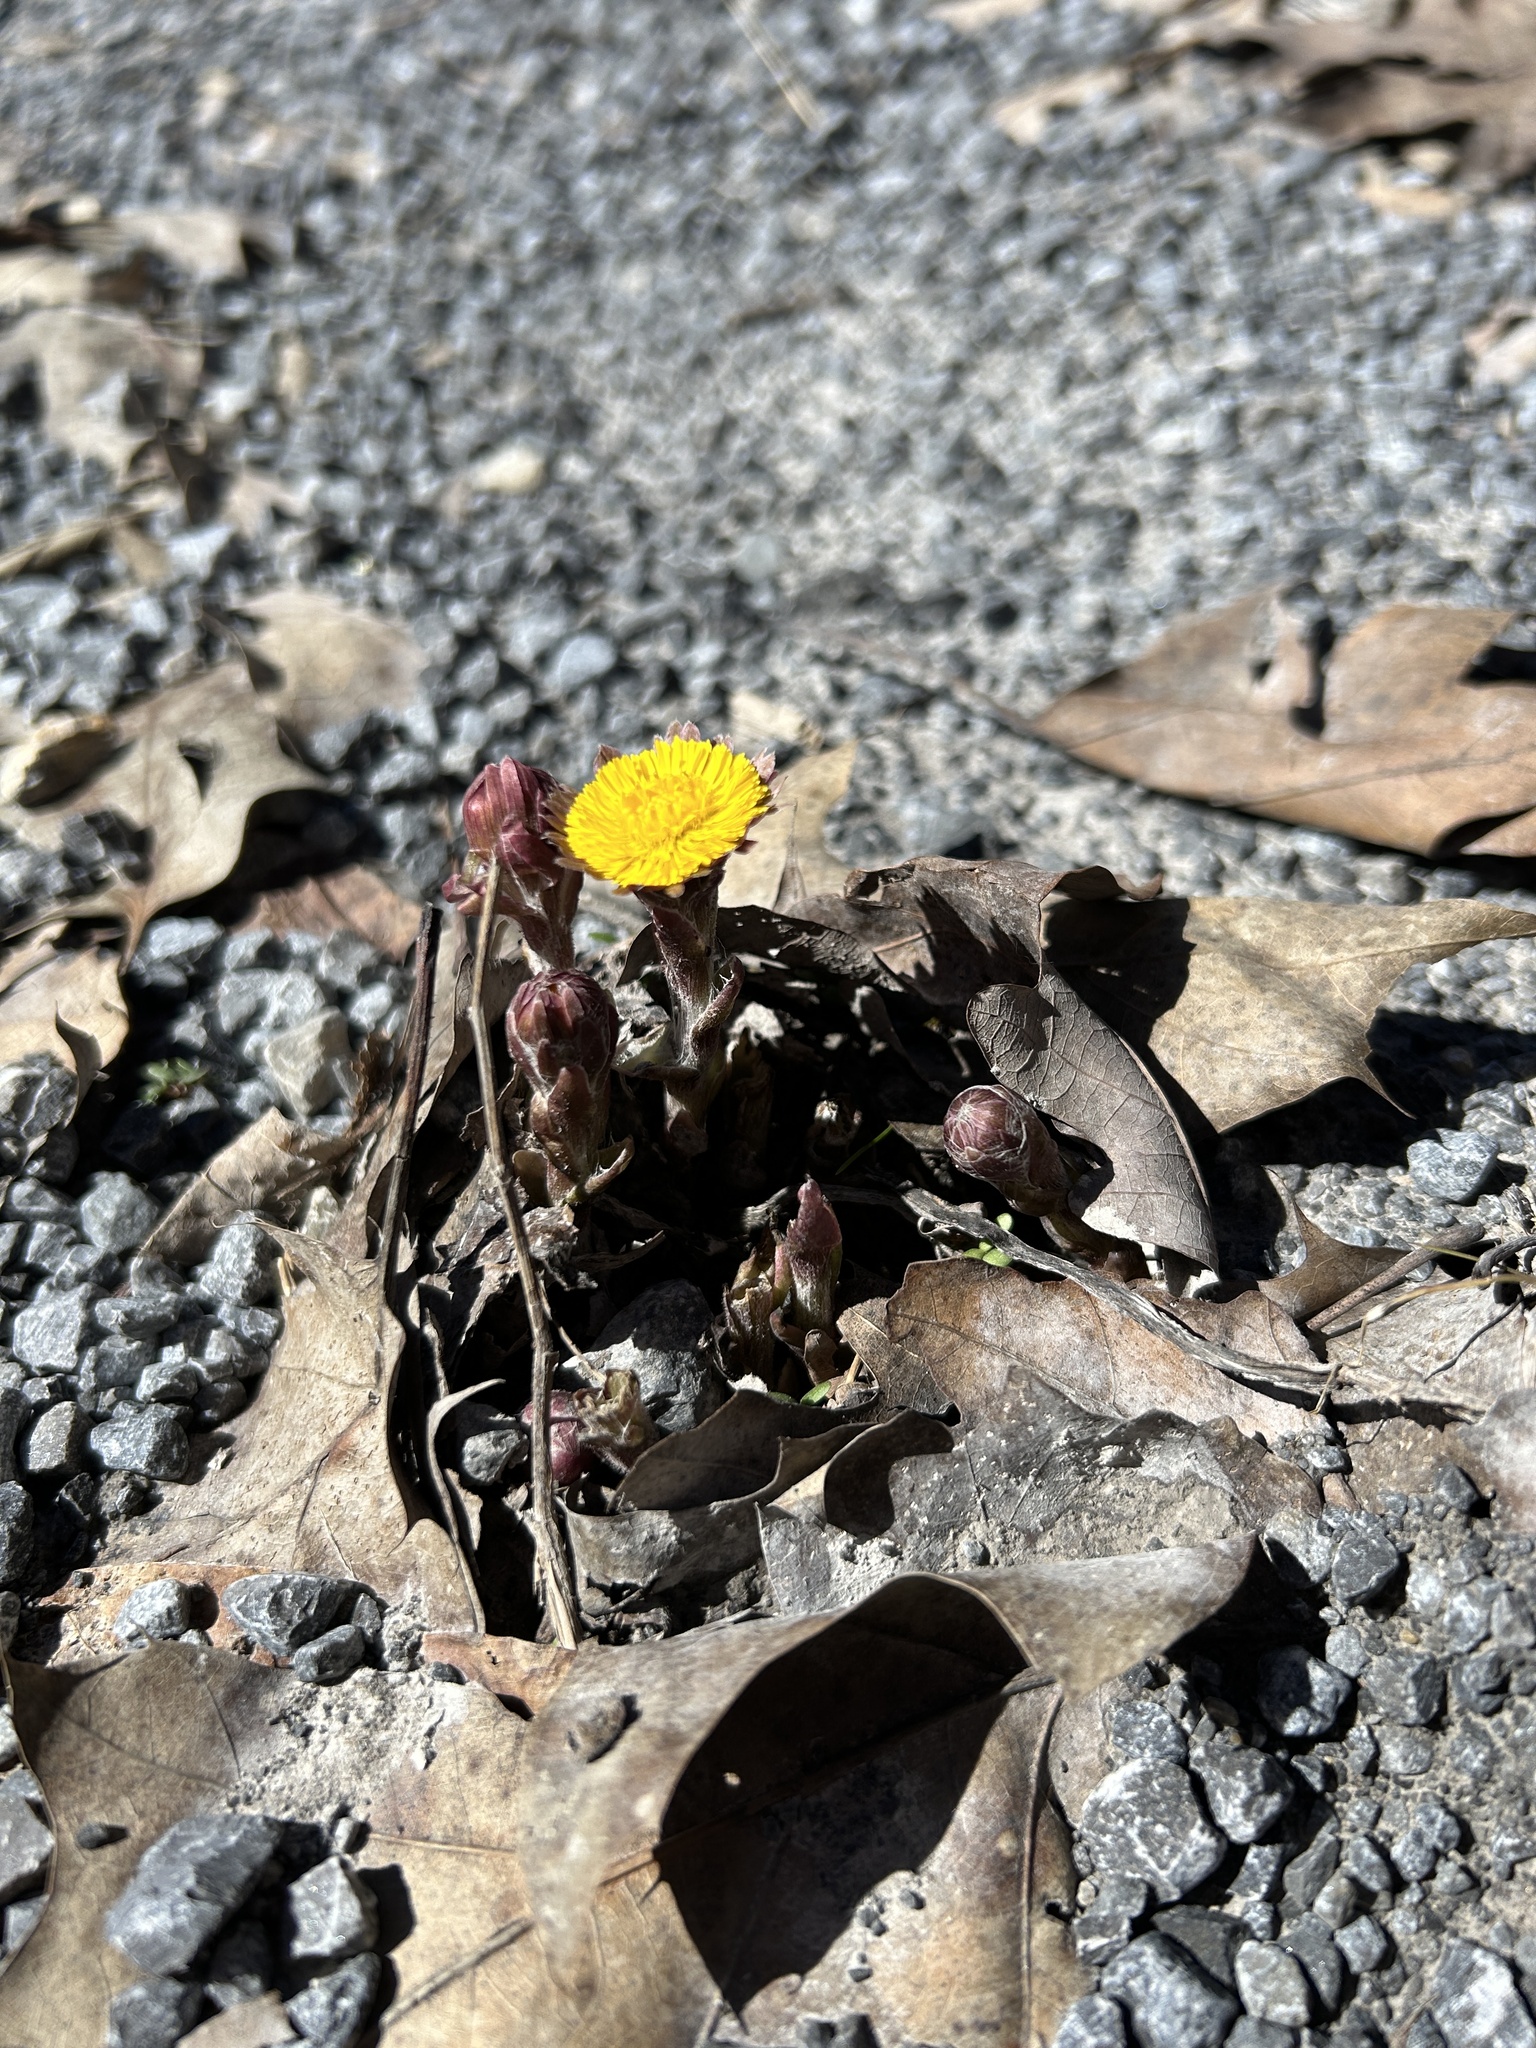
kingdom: Plantae
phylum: Tracheophyta
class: Magnoliopsida
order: Asterales
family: Asteraceae
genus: Tussilago
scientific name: Tussilago farfara
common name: Coltsfoot
